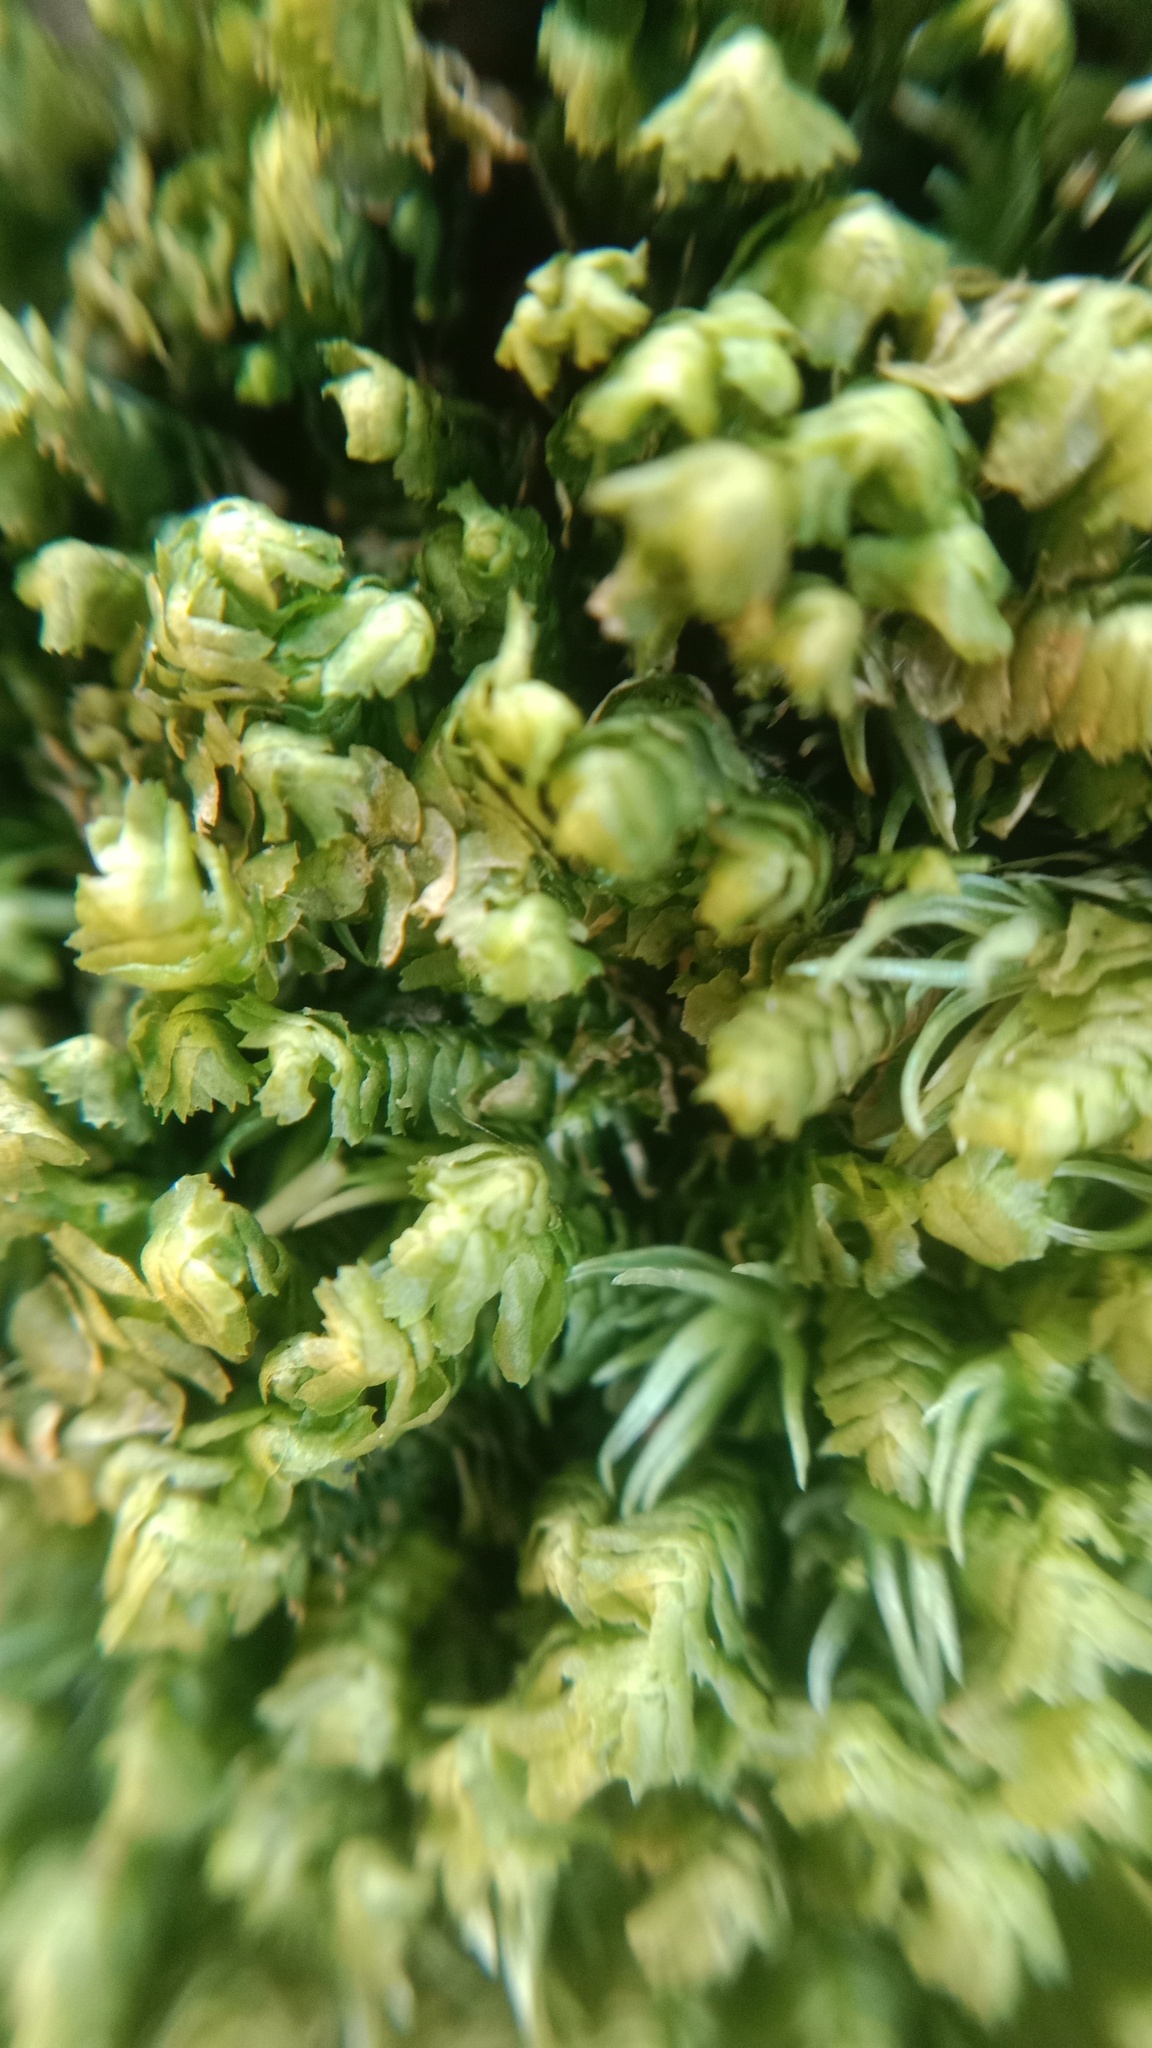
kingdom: Plantae
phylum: Marchantiophyta
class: Jungermanniopsida
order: Jungermanniales
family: Lepidoziaceae
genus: Bazzania
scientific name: Bazzania trilobata
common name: Three-lobed whipwort
